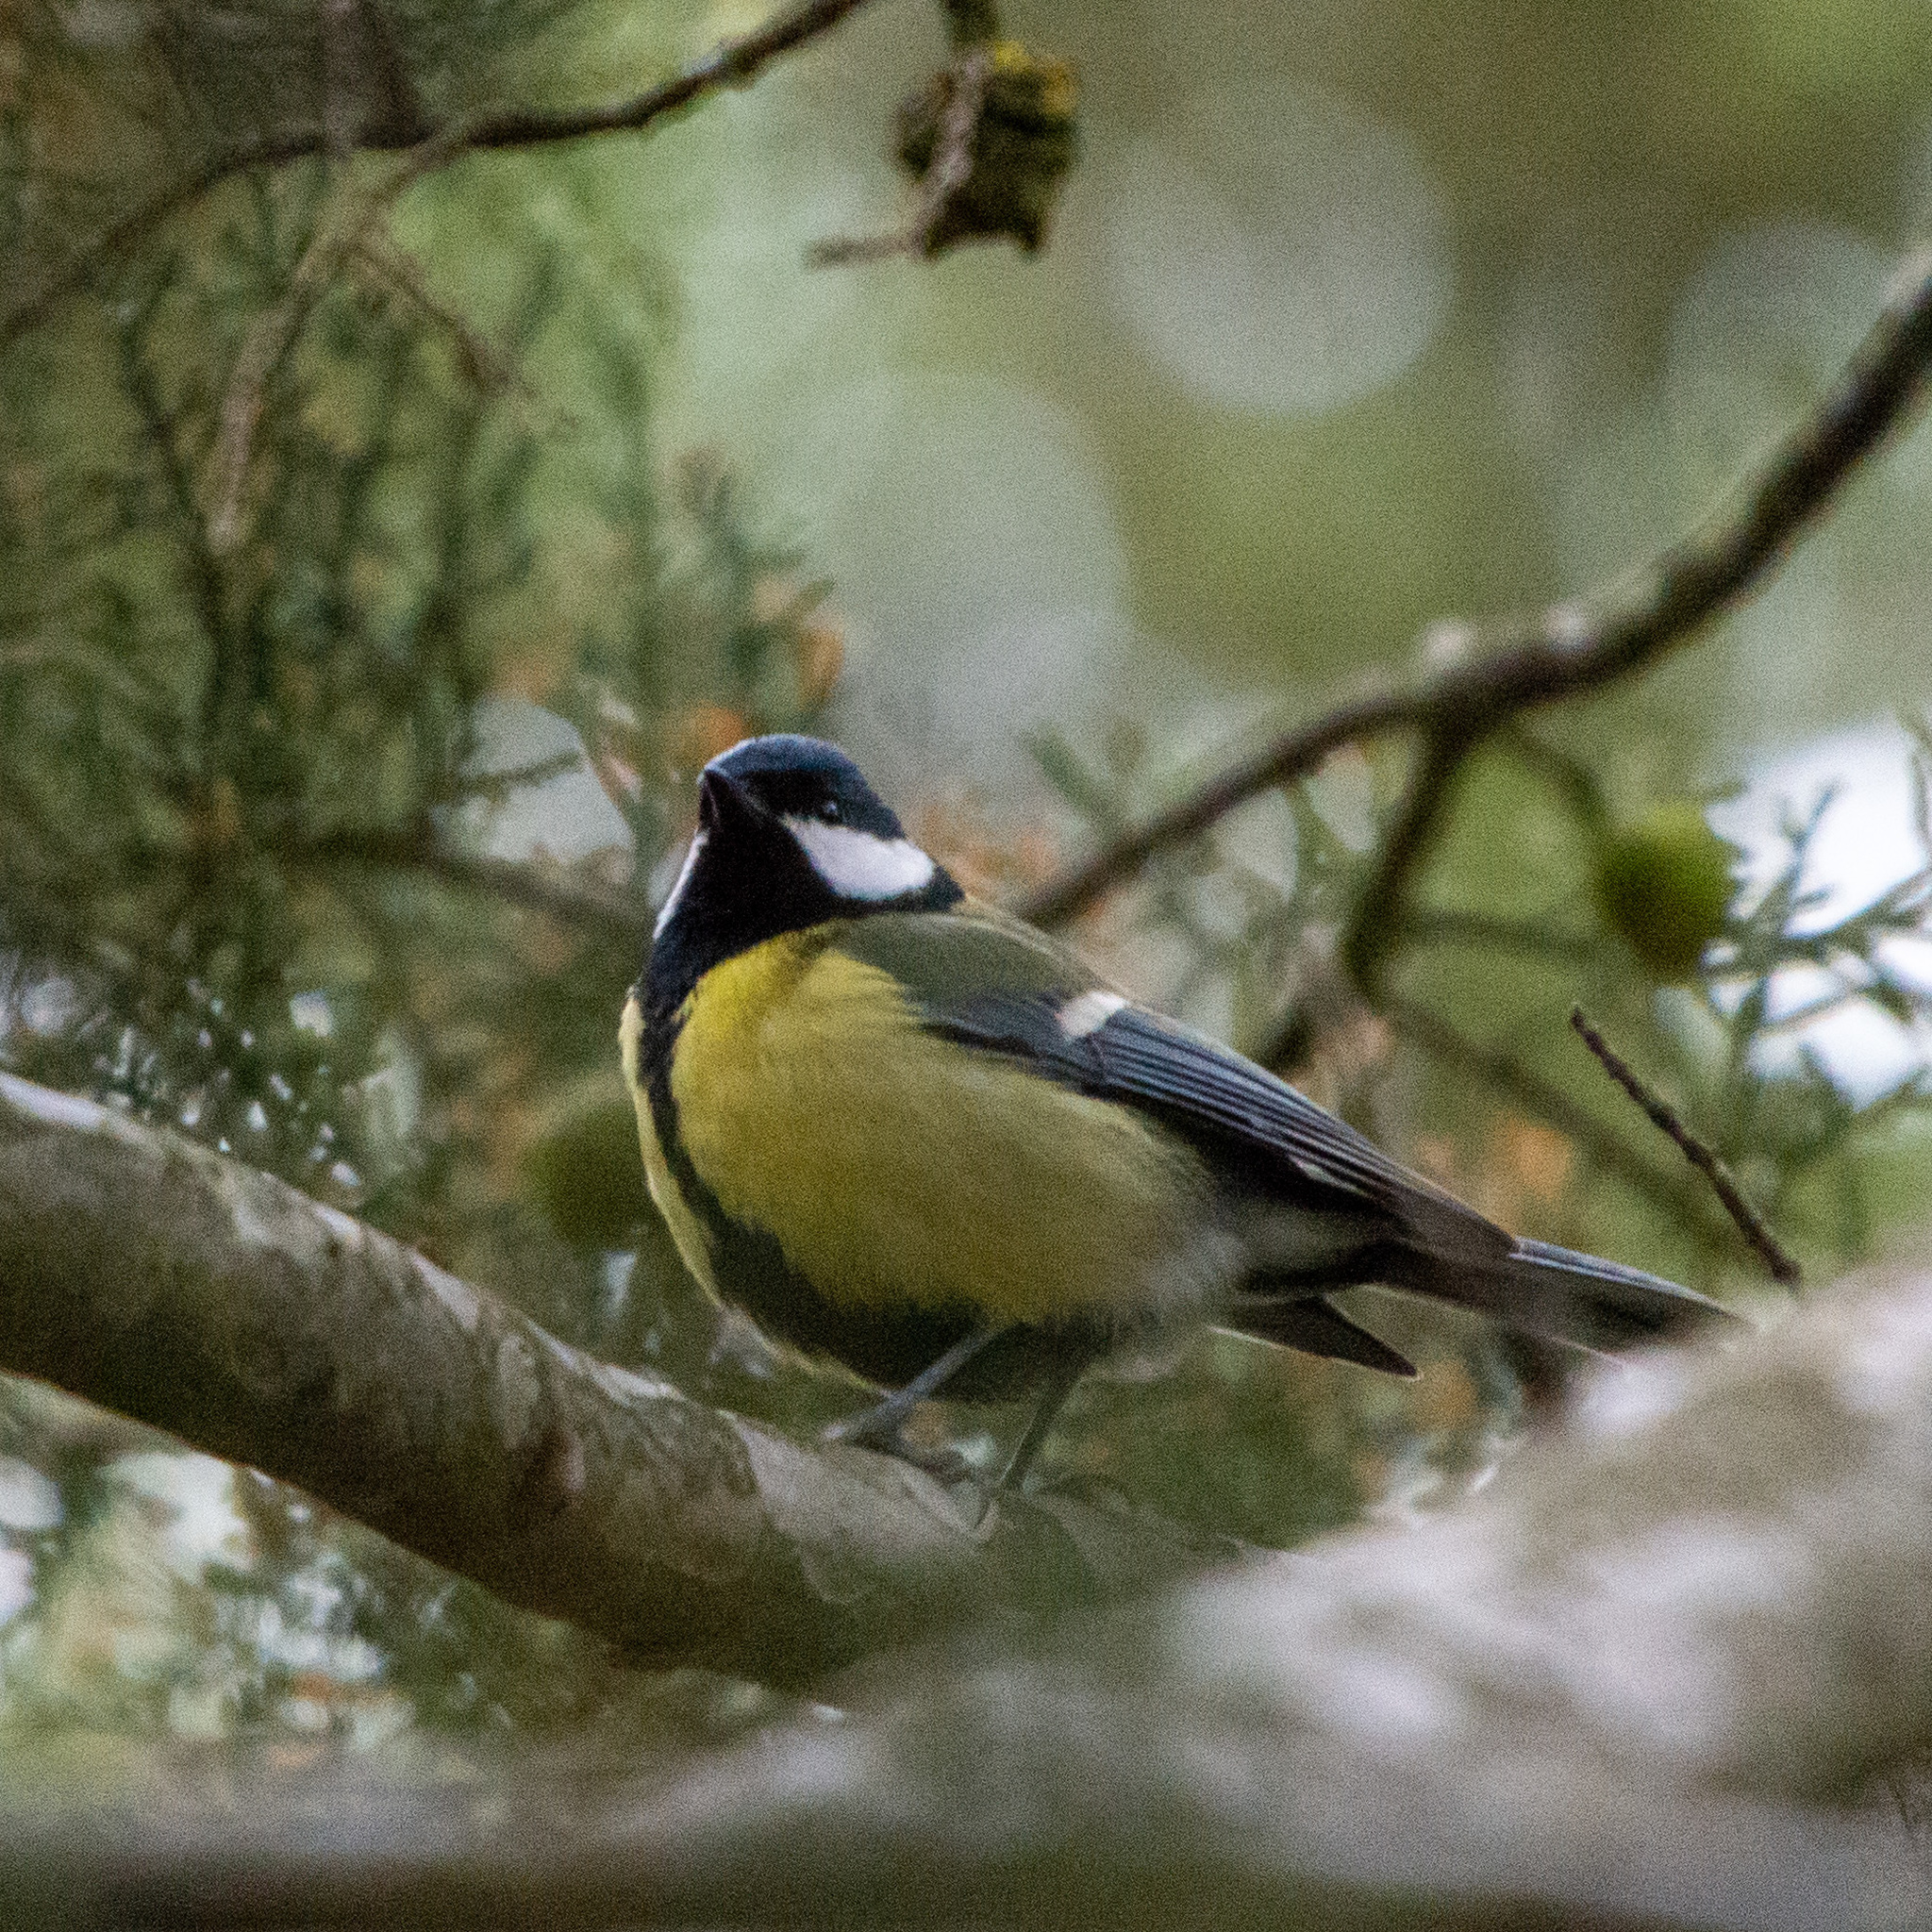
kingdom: Animalia
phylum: Chordata
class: Aves
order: Passeriformes
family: Paridae
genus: Parus
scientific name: Parus major
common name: Great tit
